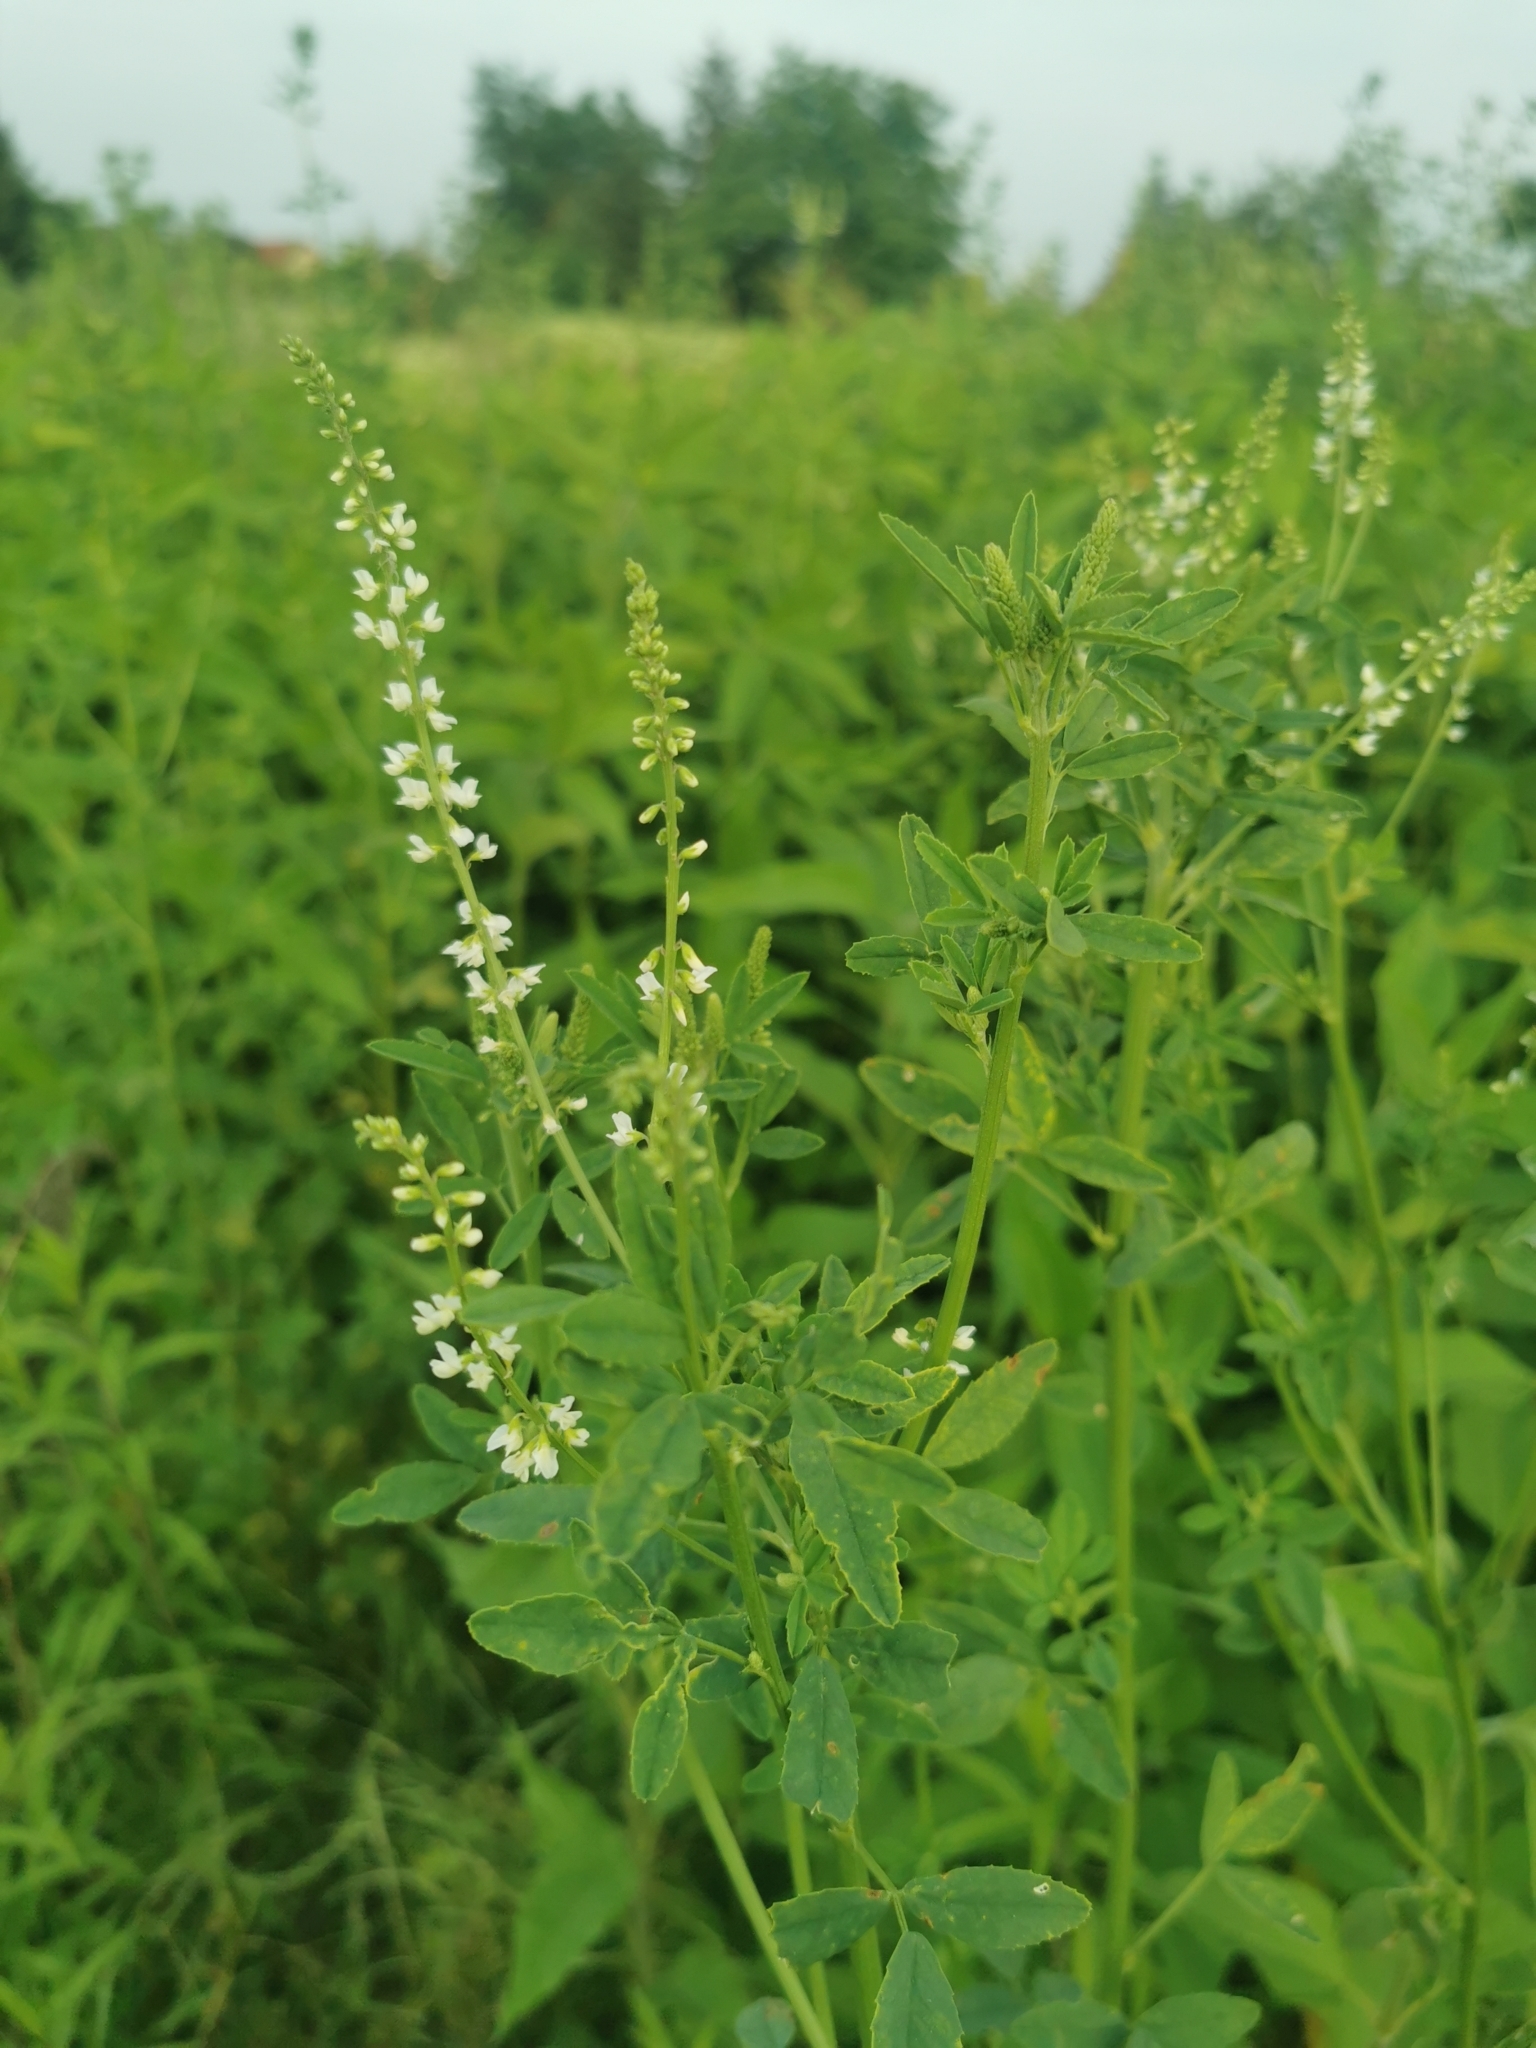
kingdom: Plantae
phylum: Tracheophyta
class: Magnoliopsida
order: Fabales
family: Fabaceae
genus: Melilotus
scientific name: Melilotus albus
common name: White melilot
